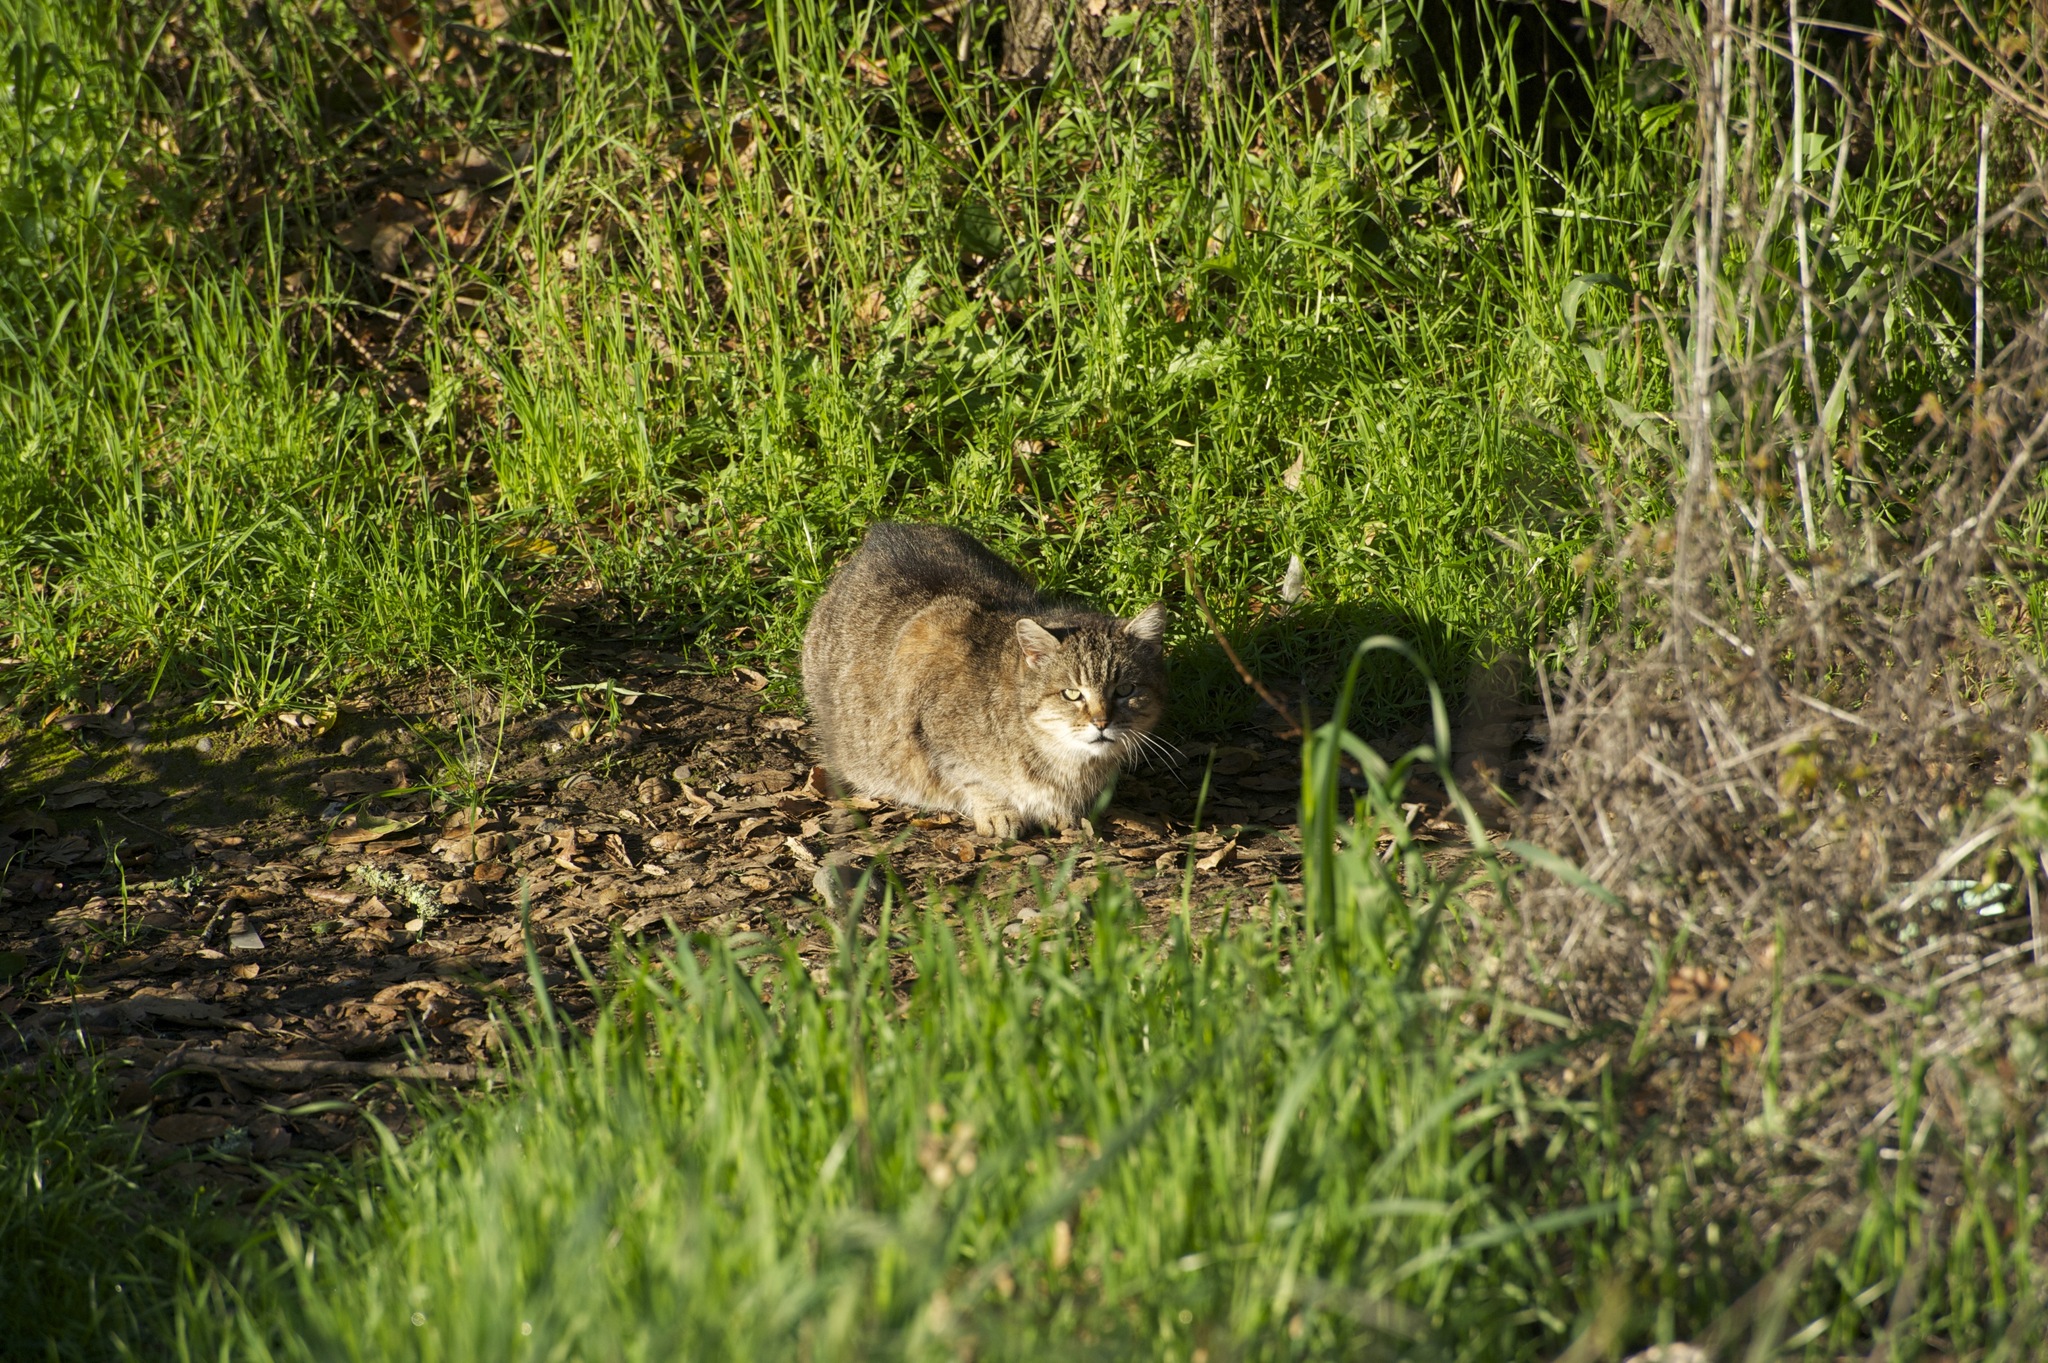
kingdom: Animalia
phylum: Chordata
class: Mammalia
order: Carnivora
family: Felidae
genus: Felis
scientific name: Felis catus
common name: Domestic cat
